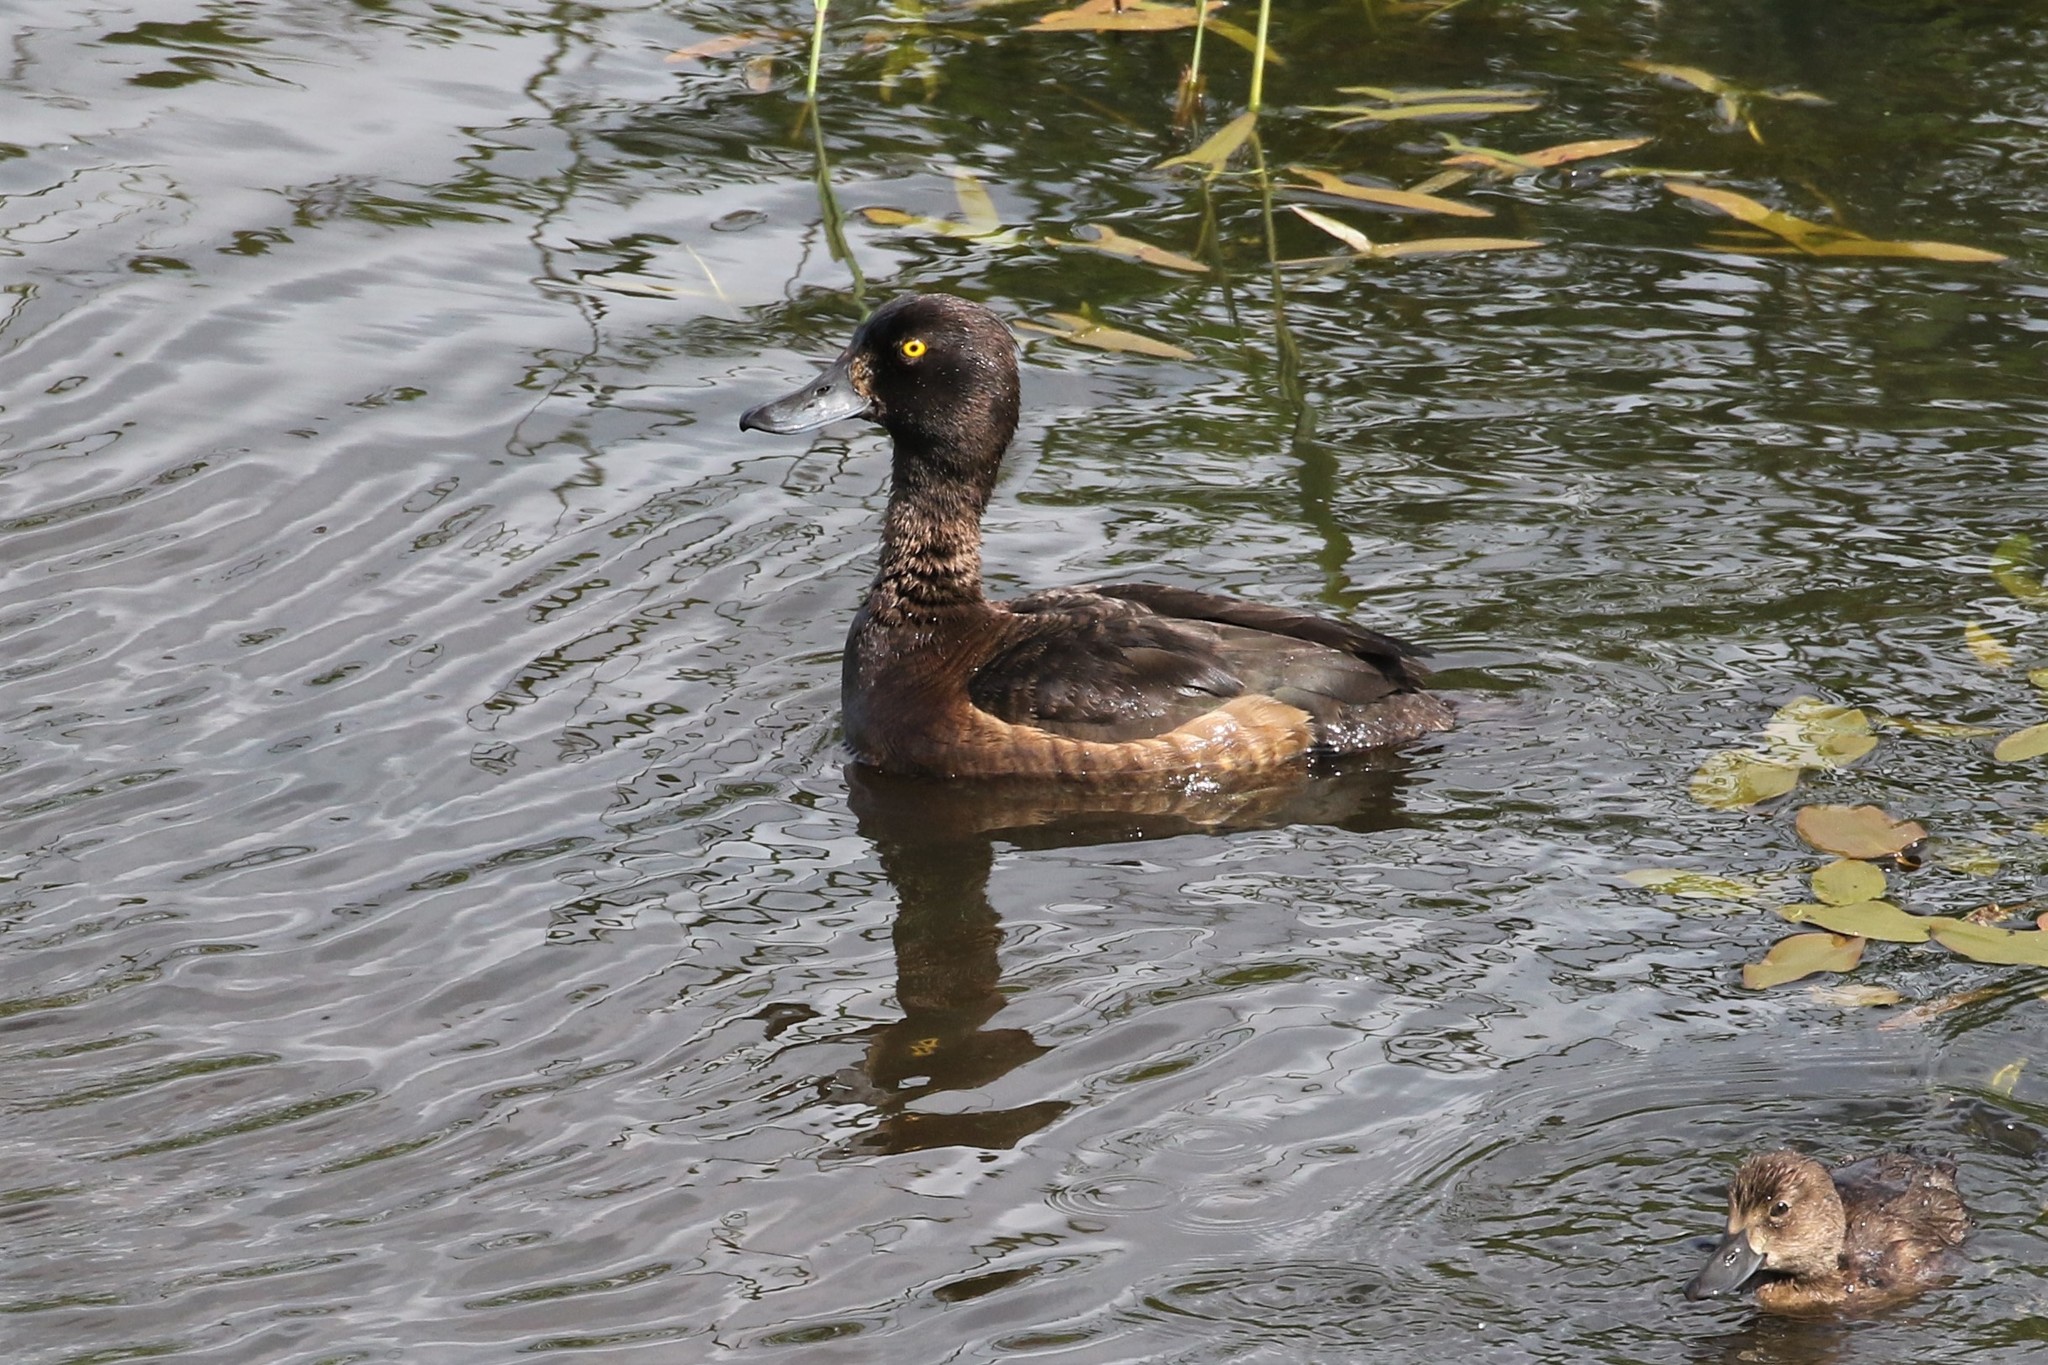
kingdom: Animalia
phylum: Chordata
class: Aves
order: Anseriformes
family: Anatidae
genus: Aythya
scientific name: Aythya fuligula
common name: Tufted duck
